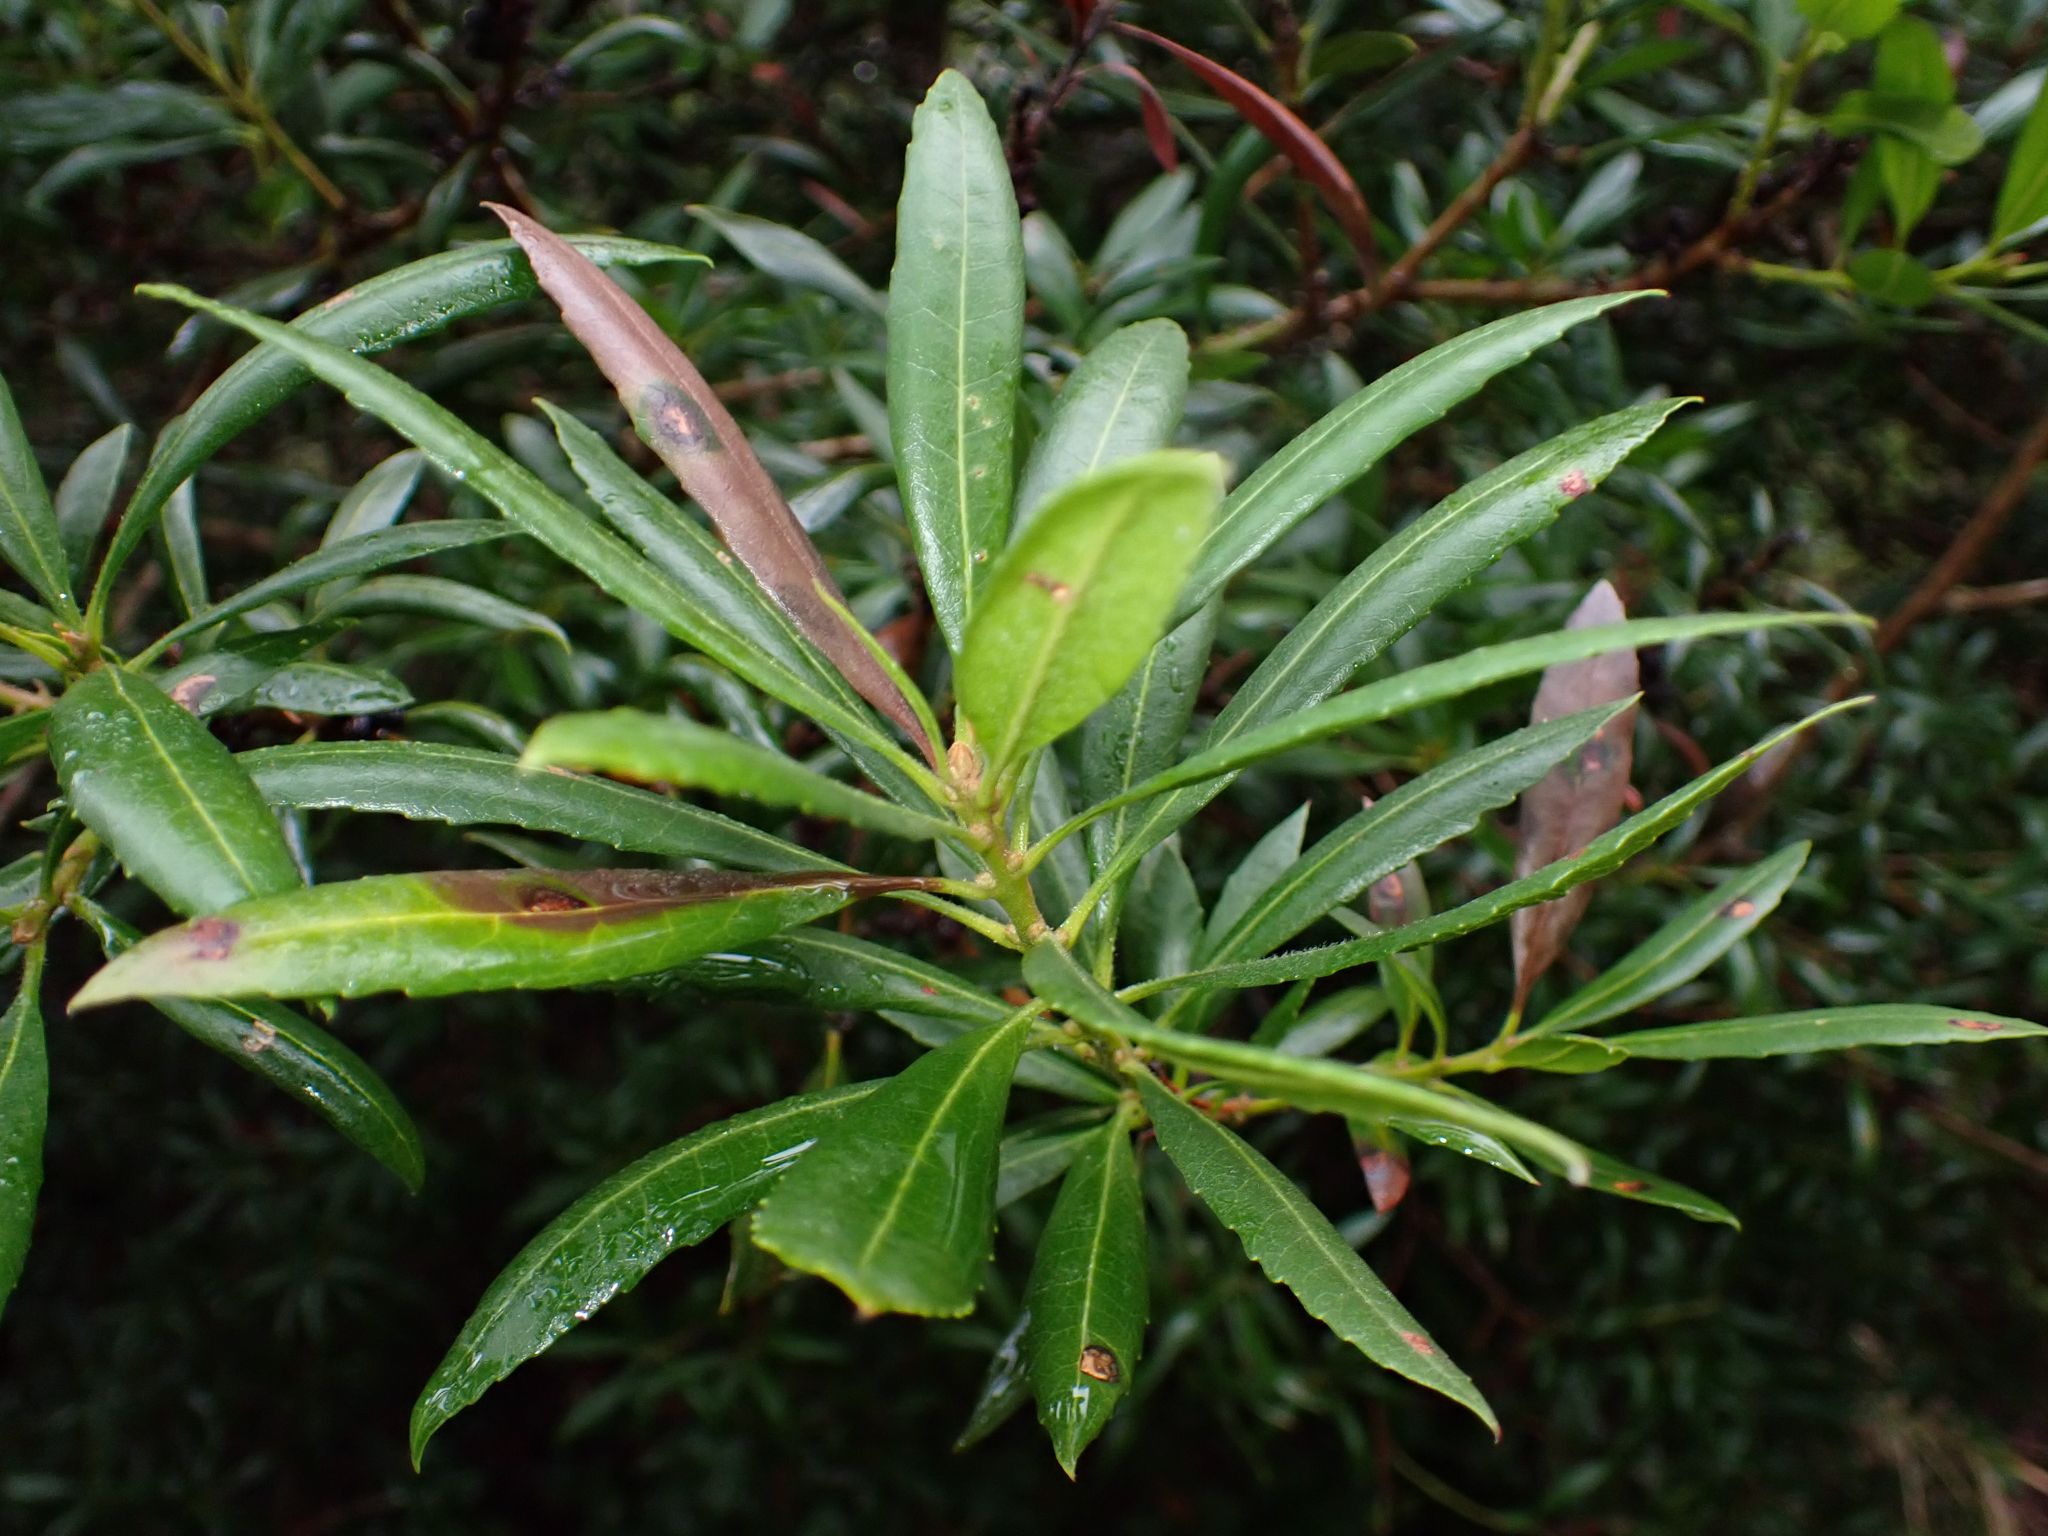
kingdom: Plantae
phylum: Tracheophyta
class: Magnoliopsida
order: Fagales
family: Myricaceae
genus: Morella
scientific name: Morella californica
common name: California wax-myrtle
